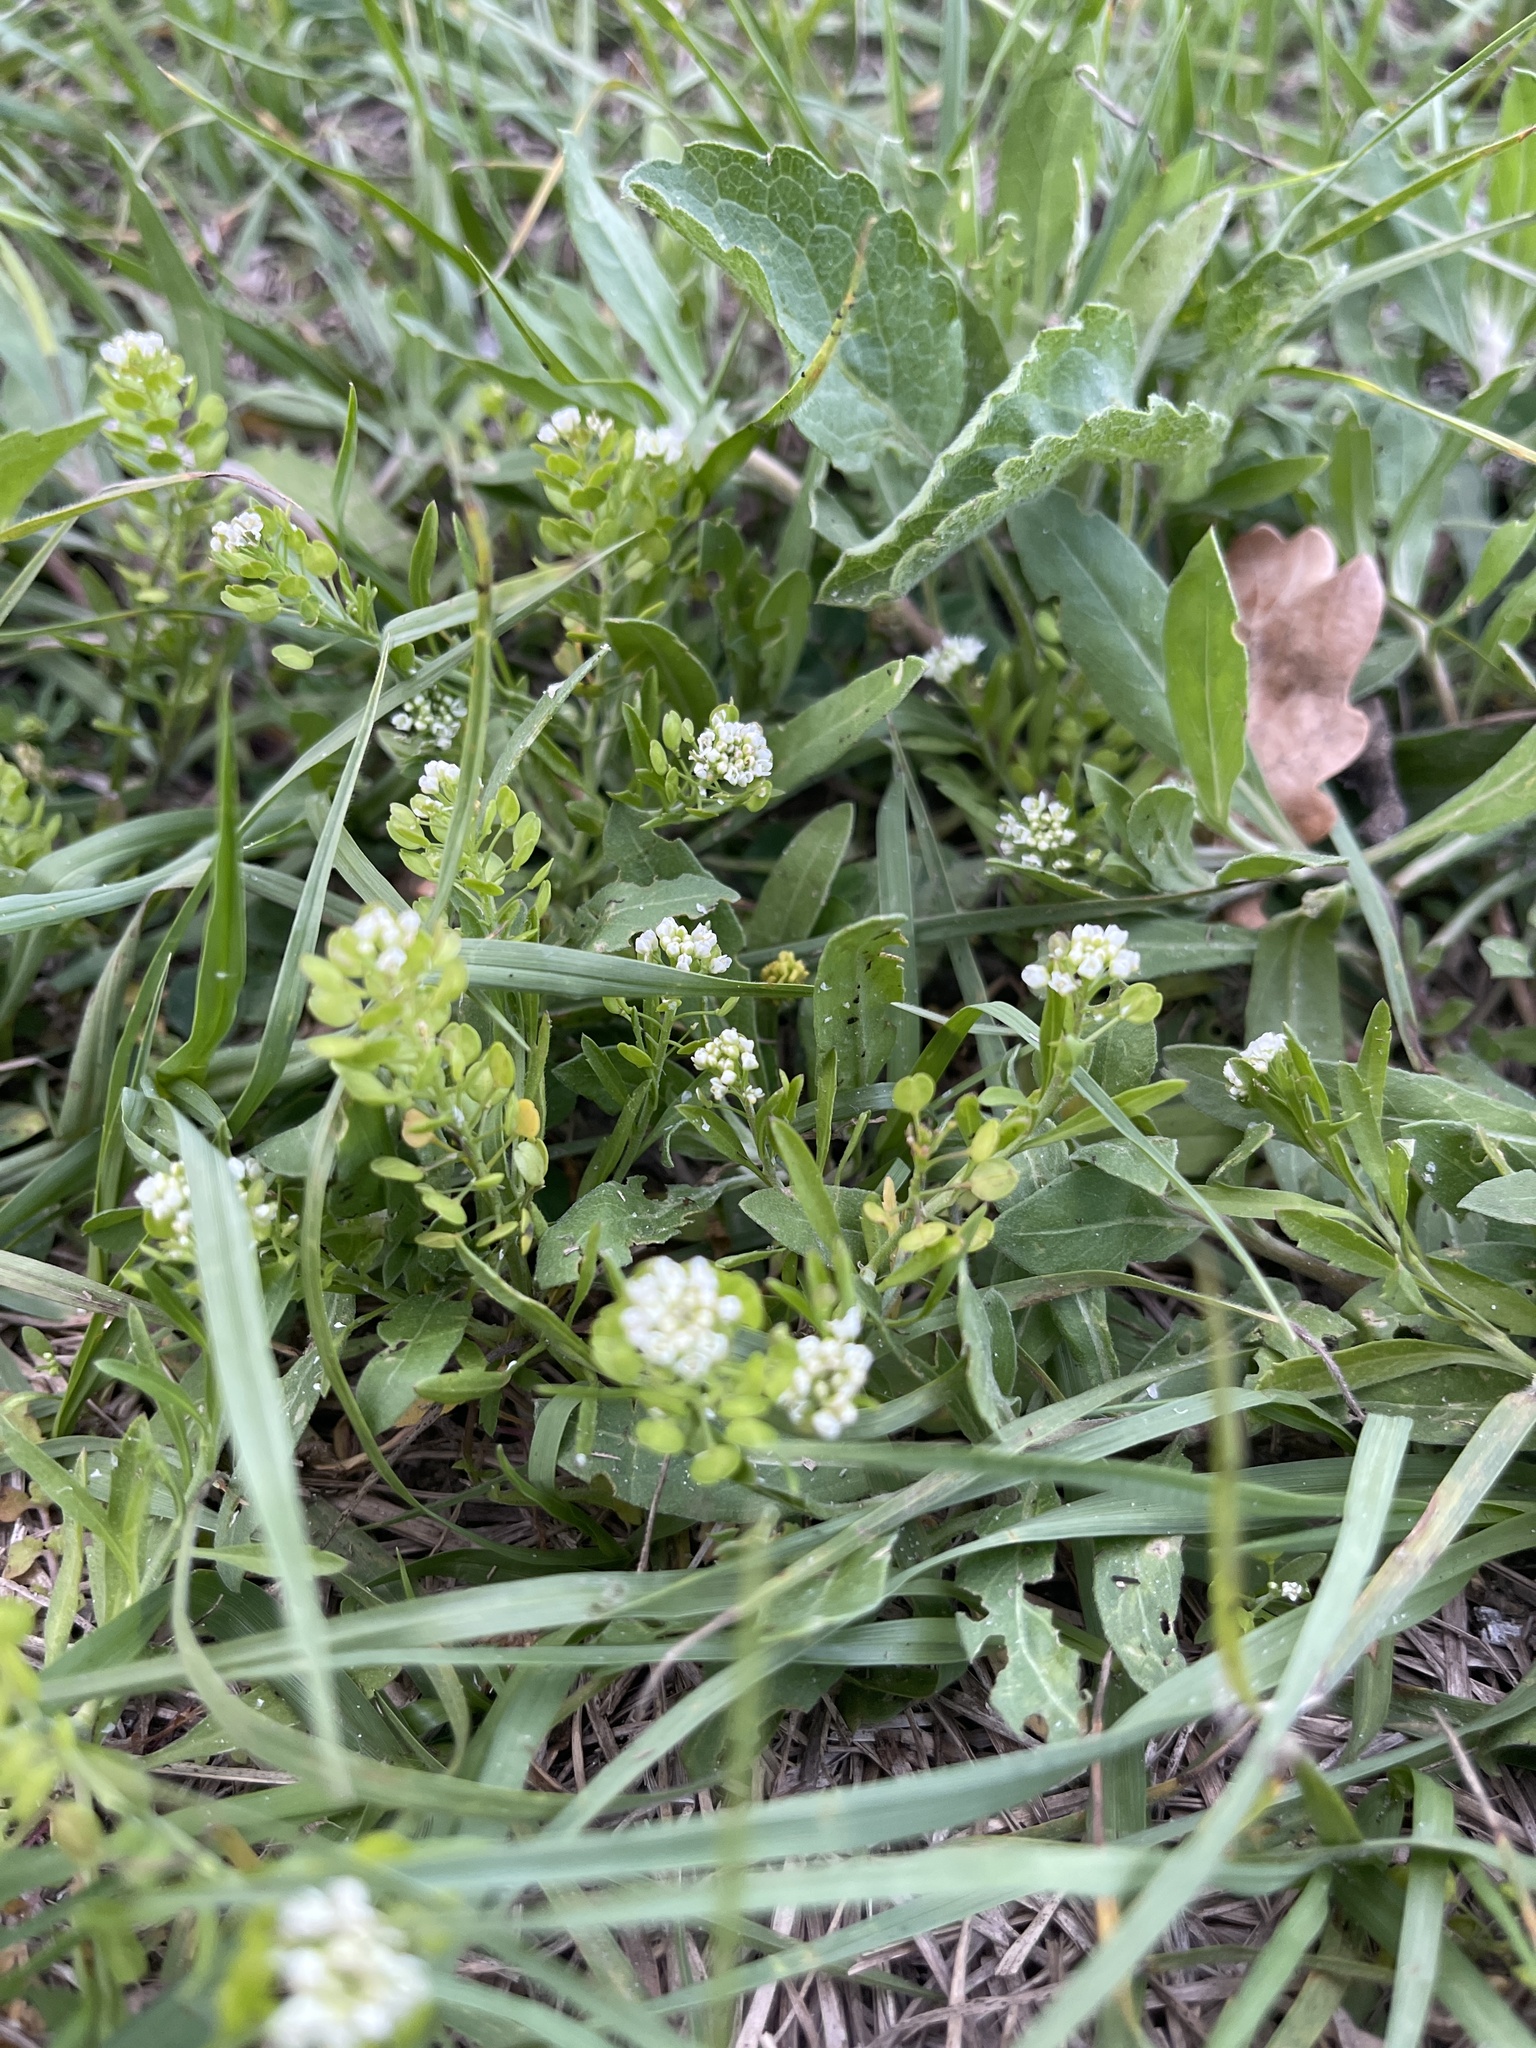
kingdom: Plantae
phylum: Tracheophyta
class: Magnoliopsida
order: Brassicales
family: Brassicaceae
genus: Lepidium
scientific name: Lepidium virginicum
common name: Least pepperwort
